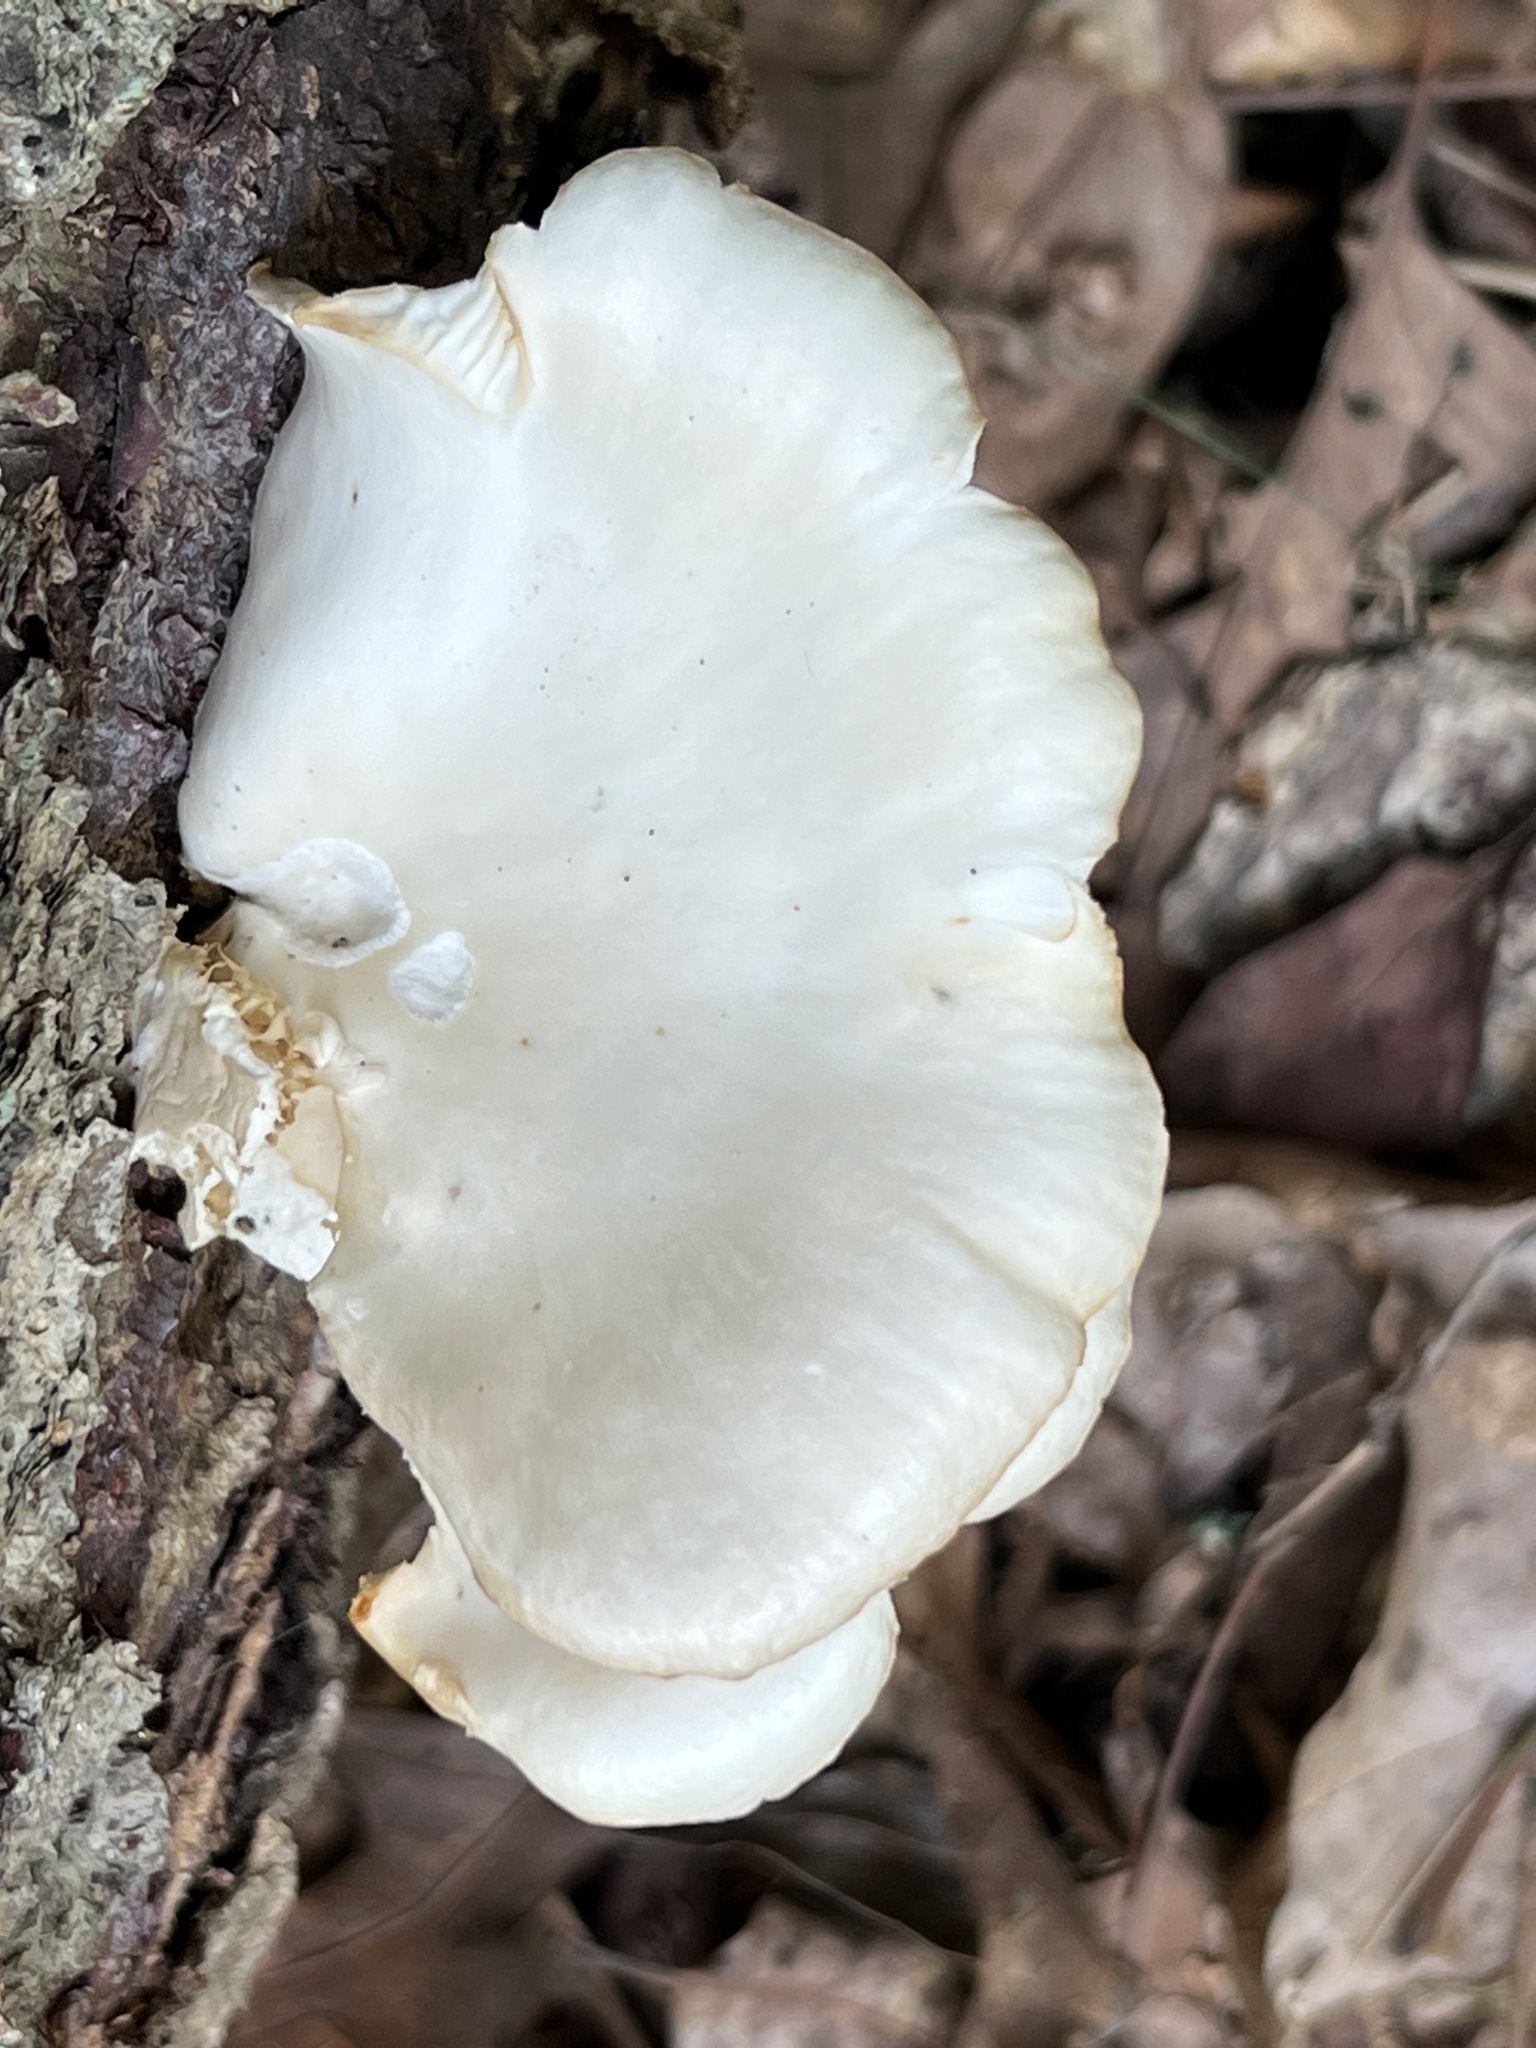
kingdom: Fungi
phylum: Basidiomycota
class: Agaricomycetes
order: Agaricales
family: Pleurotaceae
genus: Pleurotus
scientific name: Pleurotus pulmonarius
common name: Pale oyster
